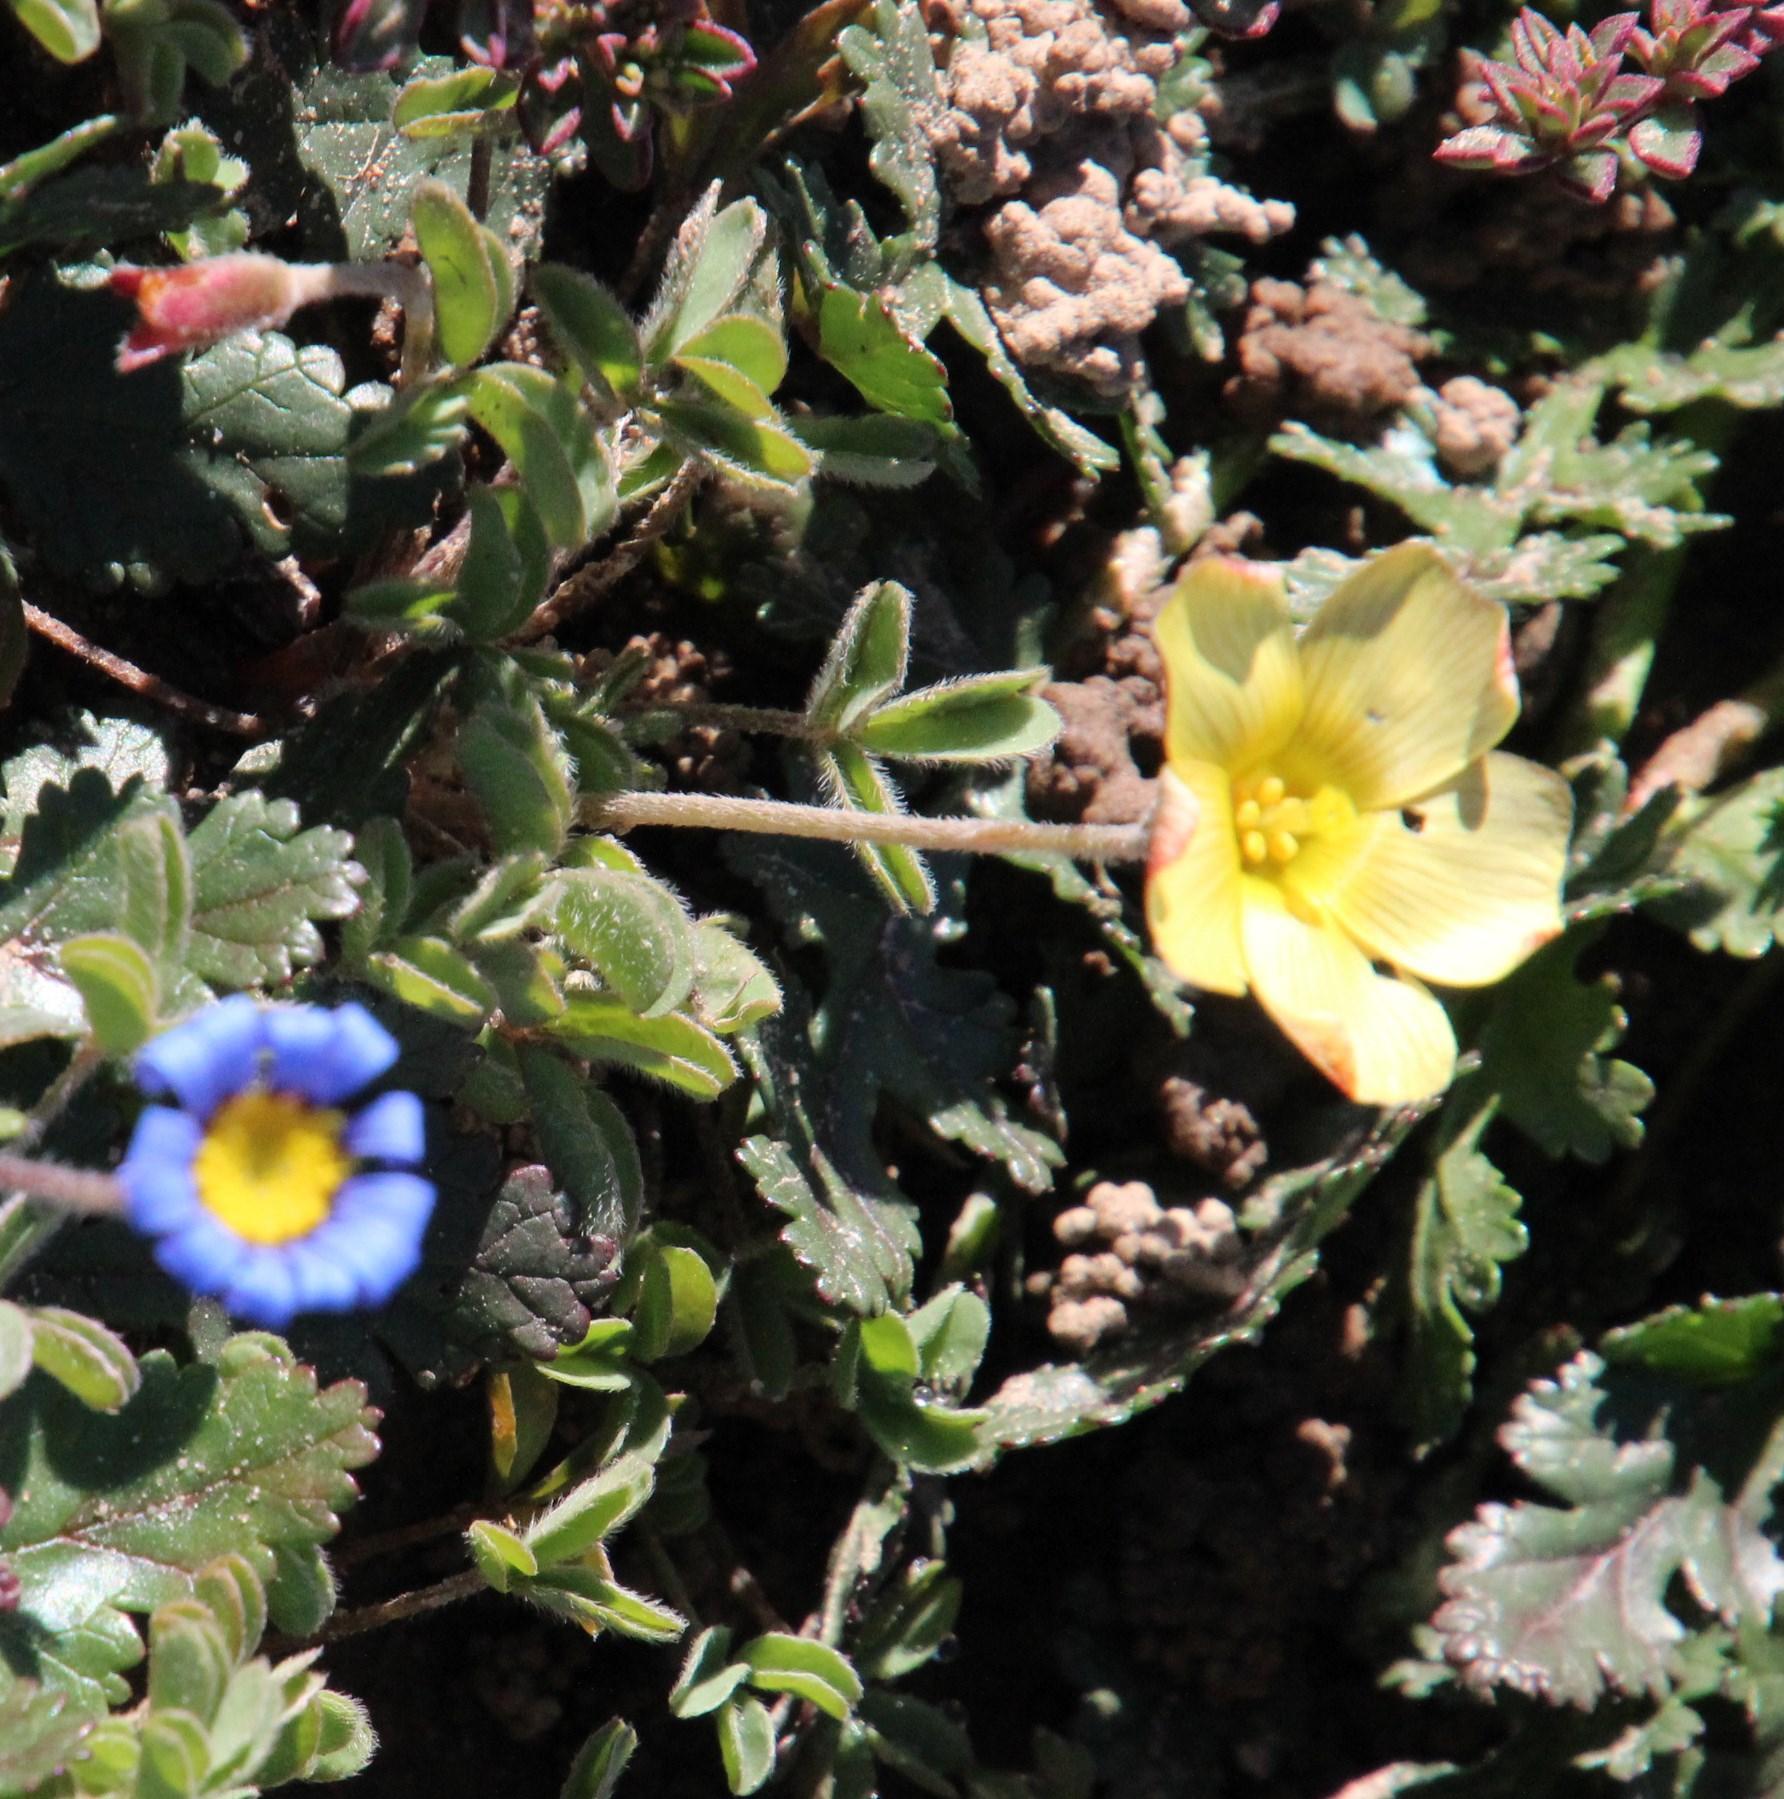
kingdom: Plantae
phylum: Tracheophyta
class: Magnoliopsida
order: Oxalidales
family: Oxalidaceae
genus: Oxalis
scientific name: Oxalis obtusa
